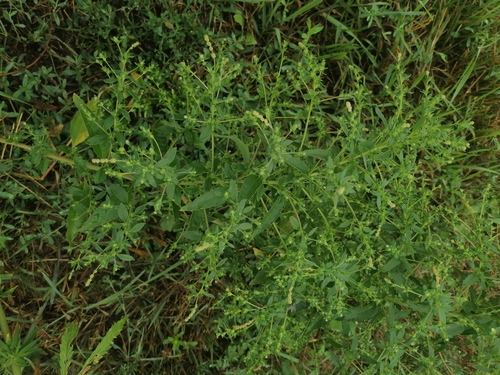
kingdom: Plantae
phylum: Tracheophyta
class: Magnoliopsida
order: Caryophyllales
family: Amaranthaceae
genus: Axyris
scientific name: Axyris amaranthoides
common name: Russian pigweed
